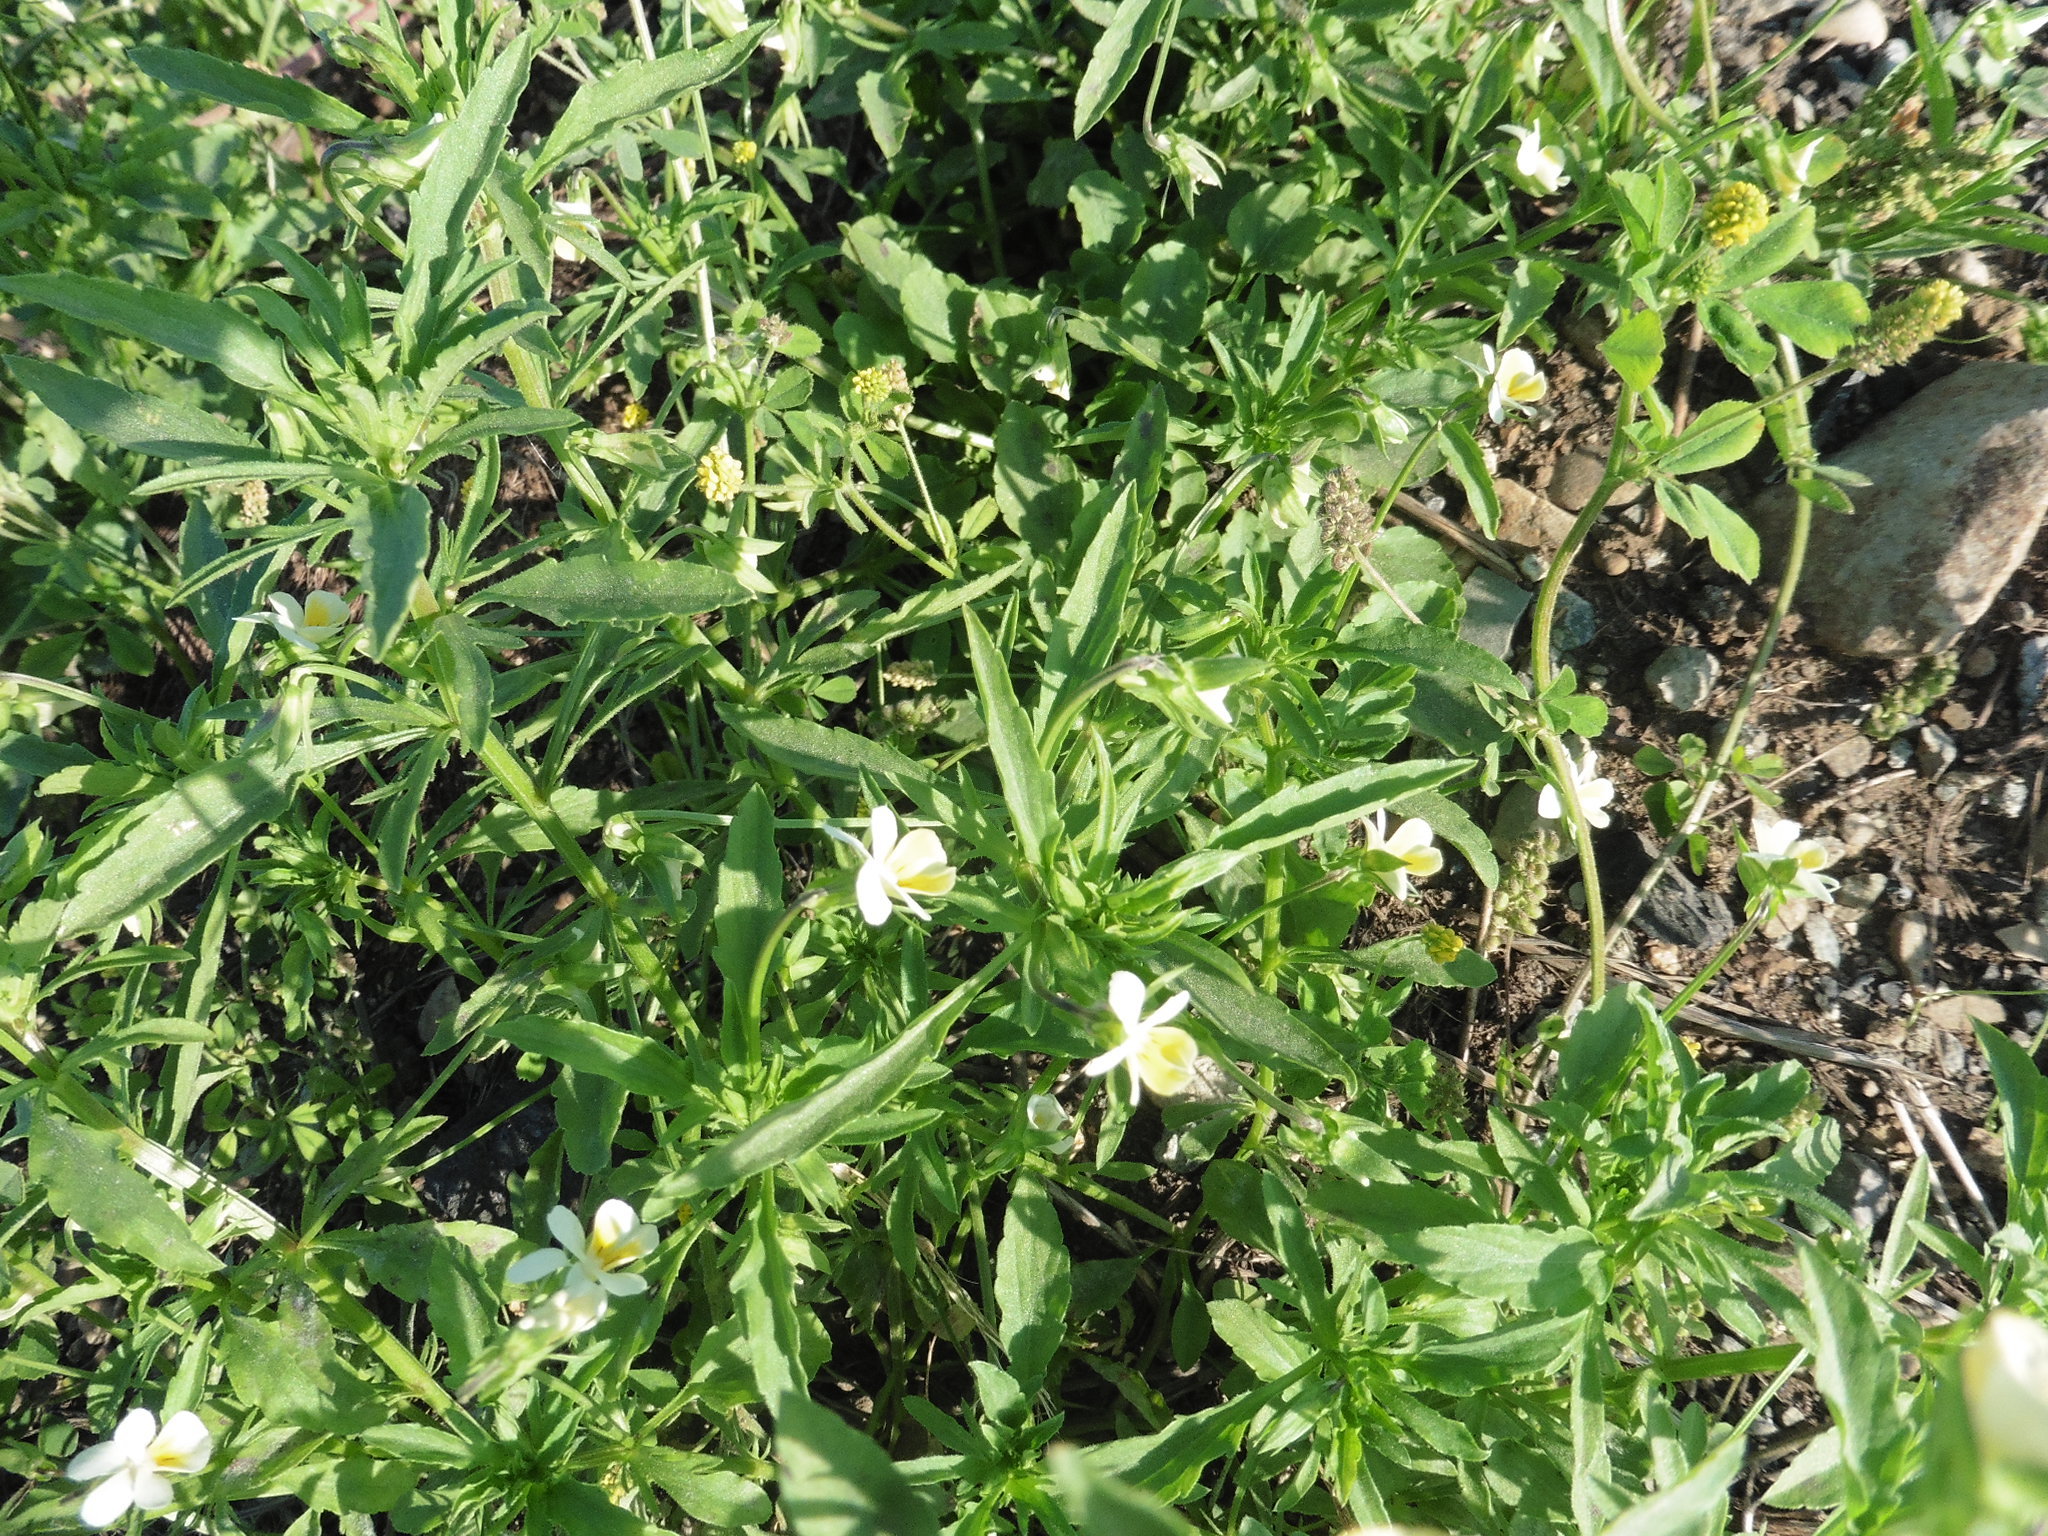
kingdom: Plantae
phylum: Tracheophyta
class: Magnoliopsida
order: Malpighiales
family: Violaceae
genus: Viola
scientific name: Viola arvensis
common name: Field pansy
